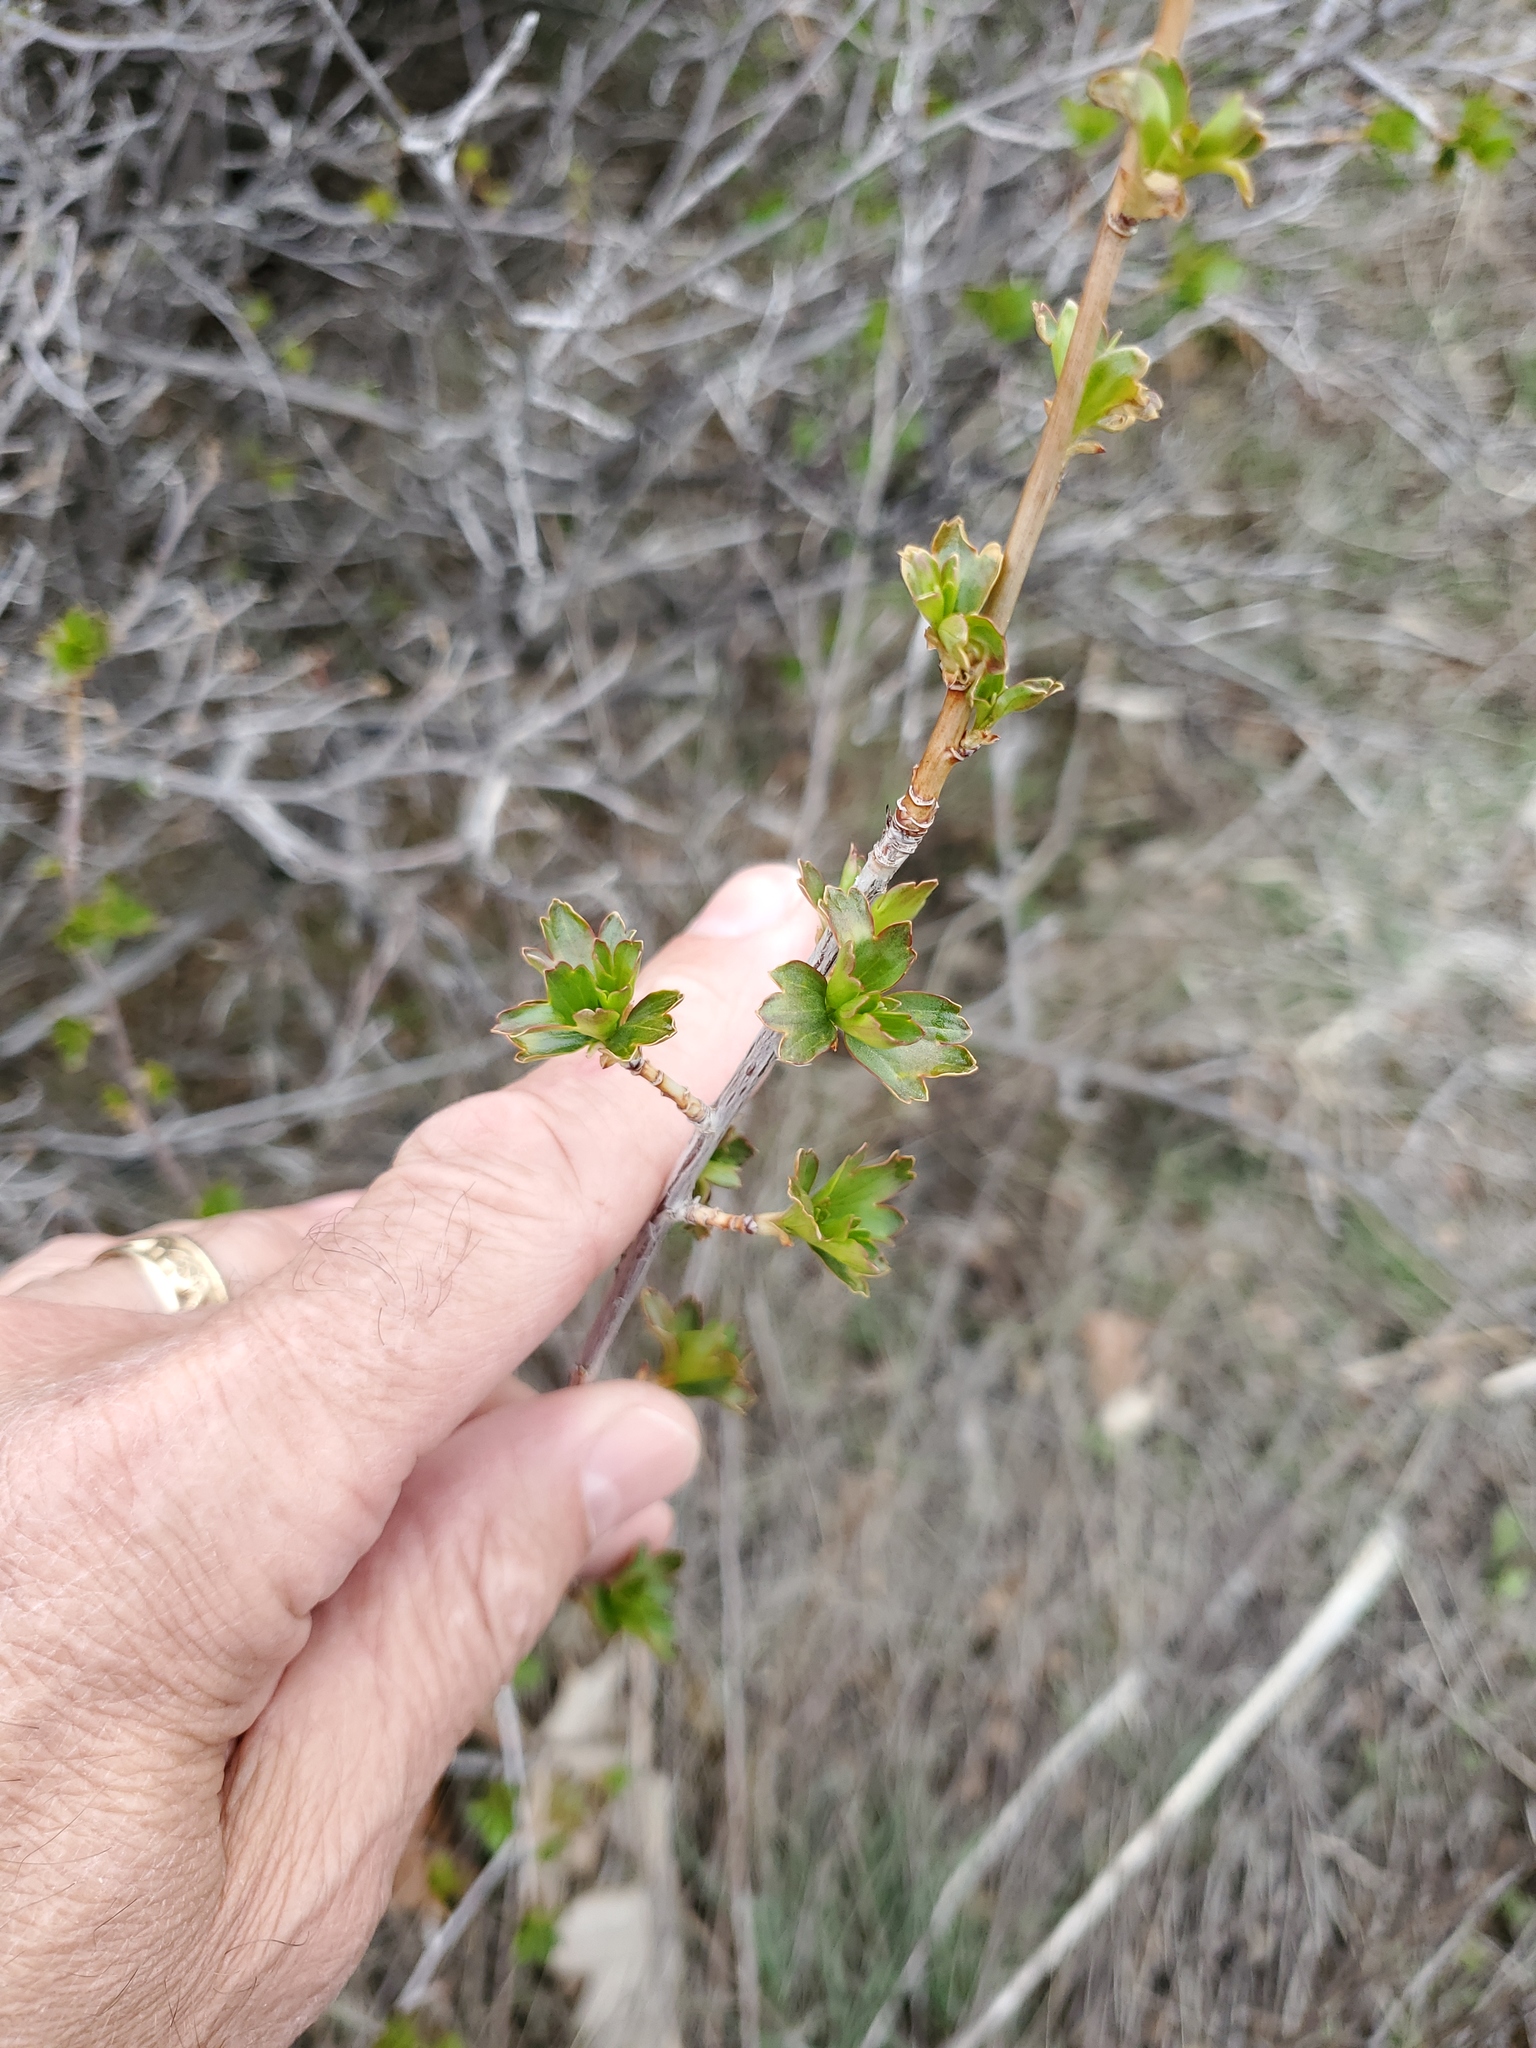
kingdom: Plantae
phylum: Tracheophyta
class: Magnoliopsida
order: Saxifragales
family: Grossulariaceae
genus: Ribes
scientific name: Ribes aureum
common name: Golden currant
